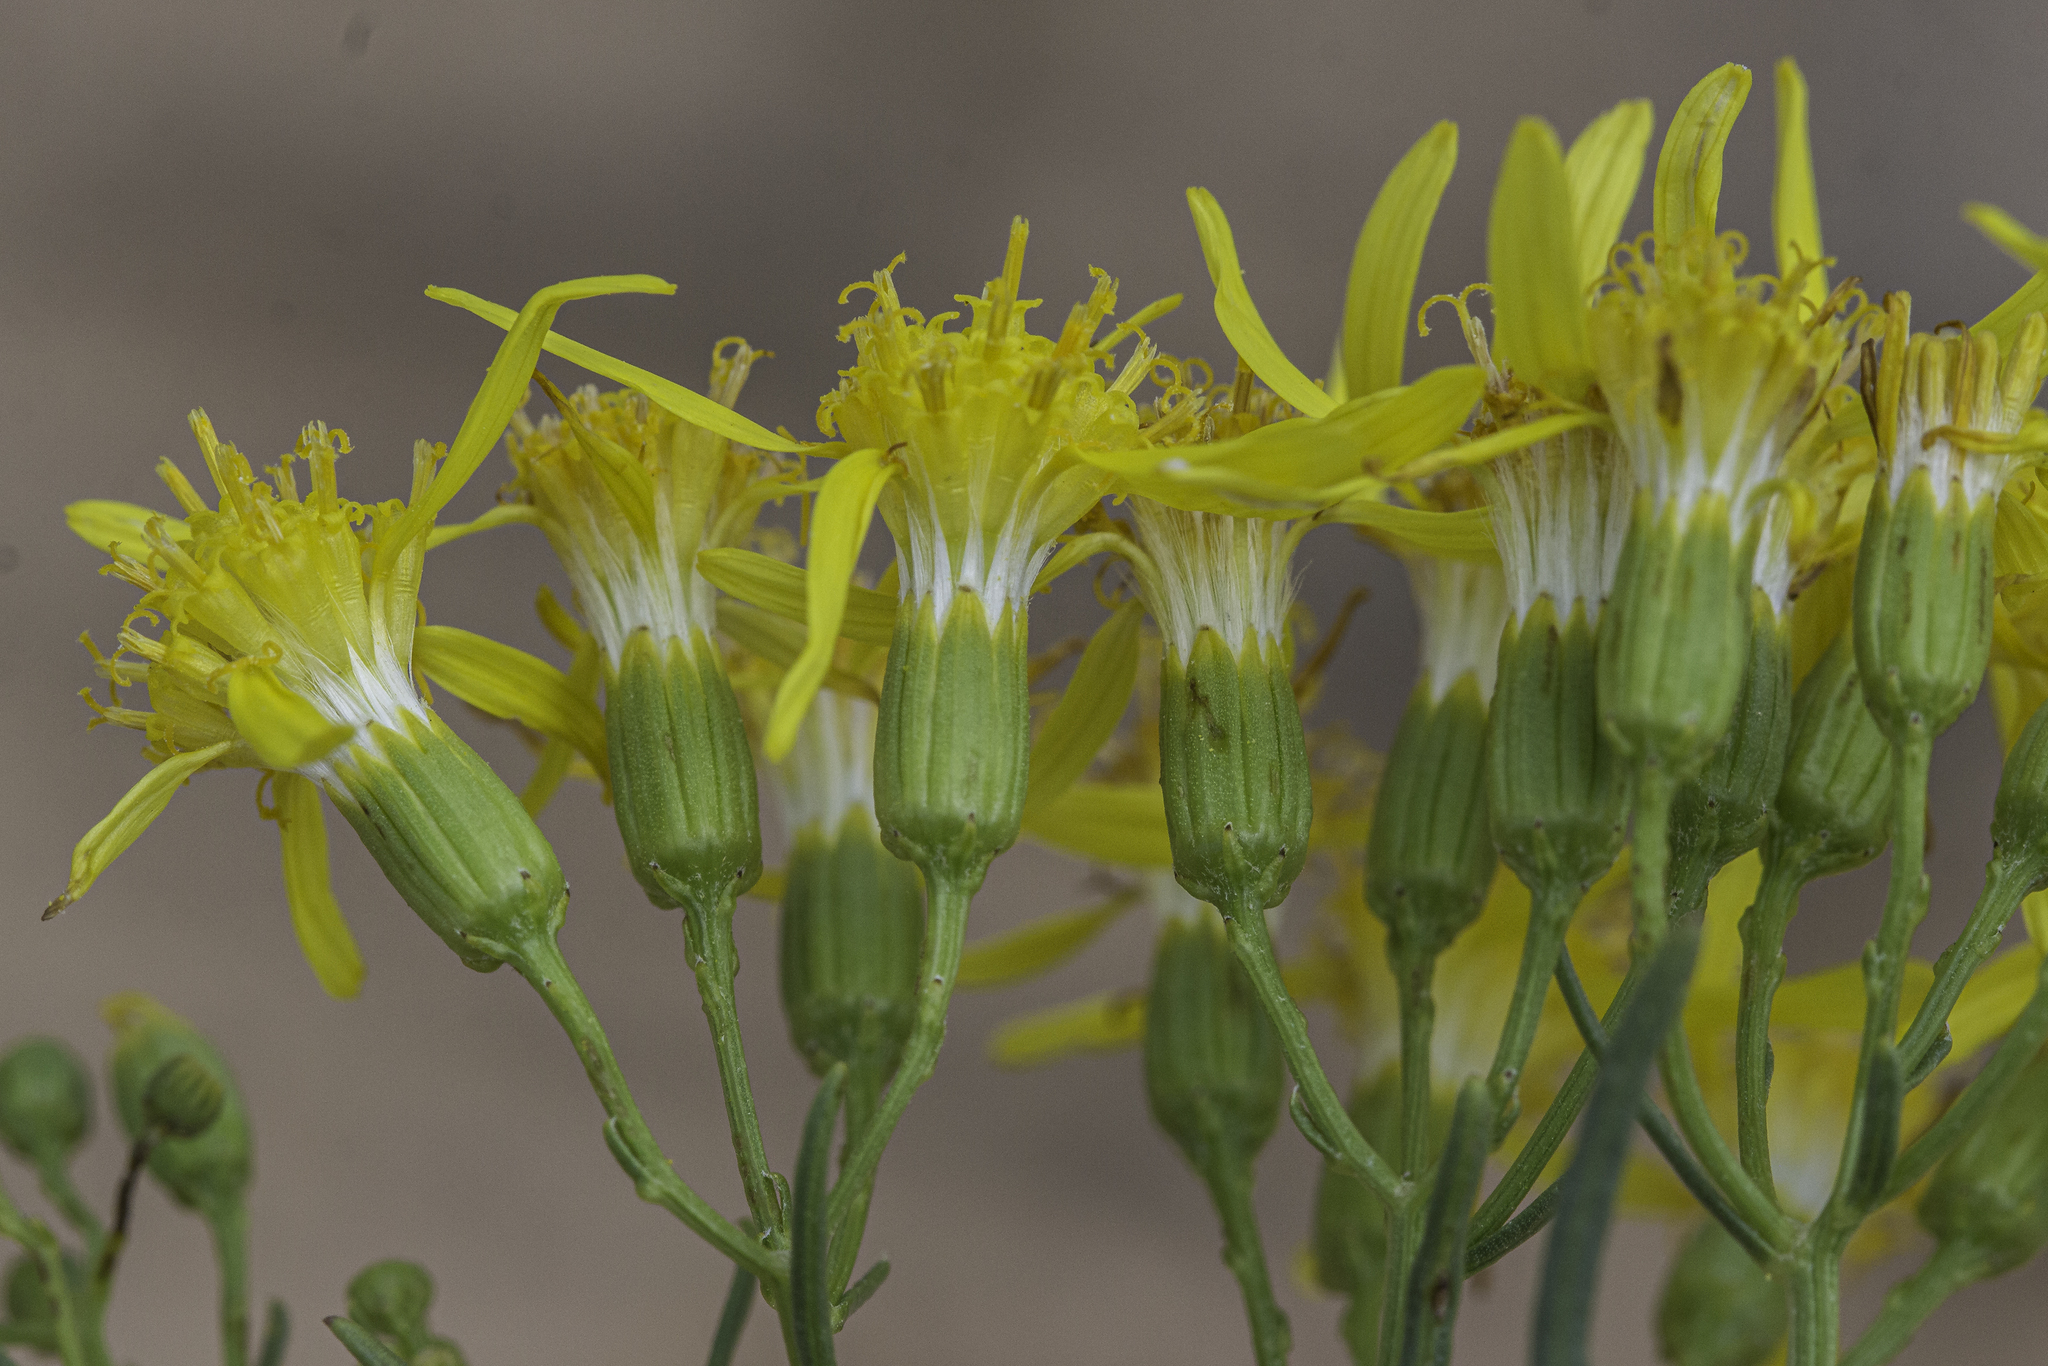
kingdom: Plantae
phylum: Tracheophyta
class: Magnoliopsida
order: Asterales
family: Asteraceae
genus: Senecio
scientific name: Senecio riddellii
